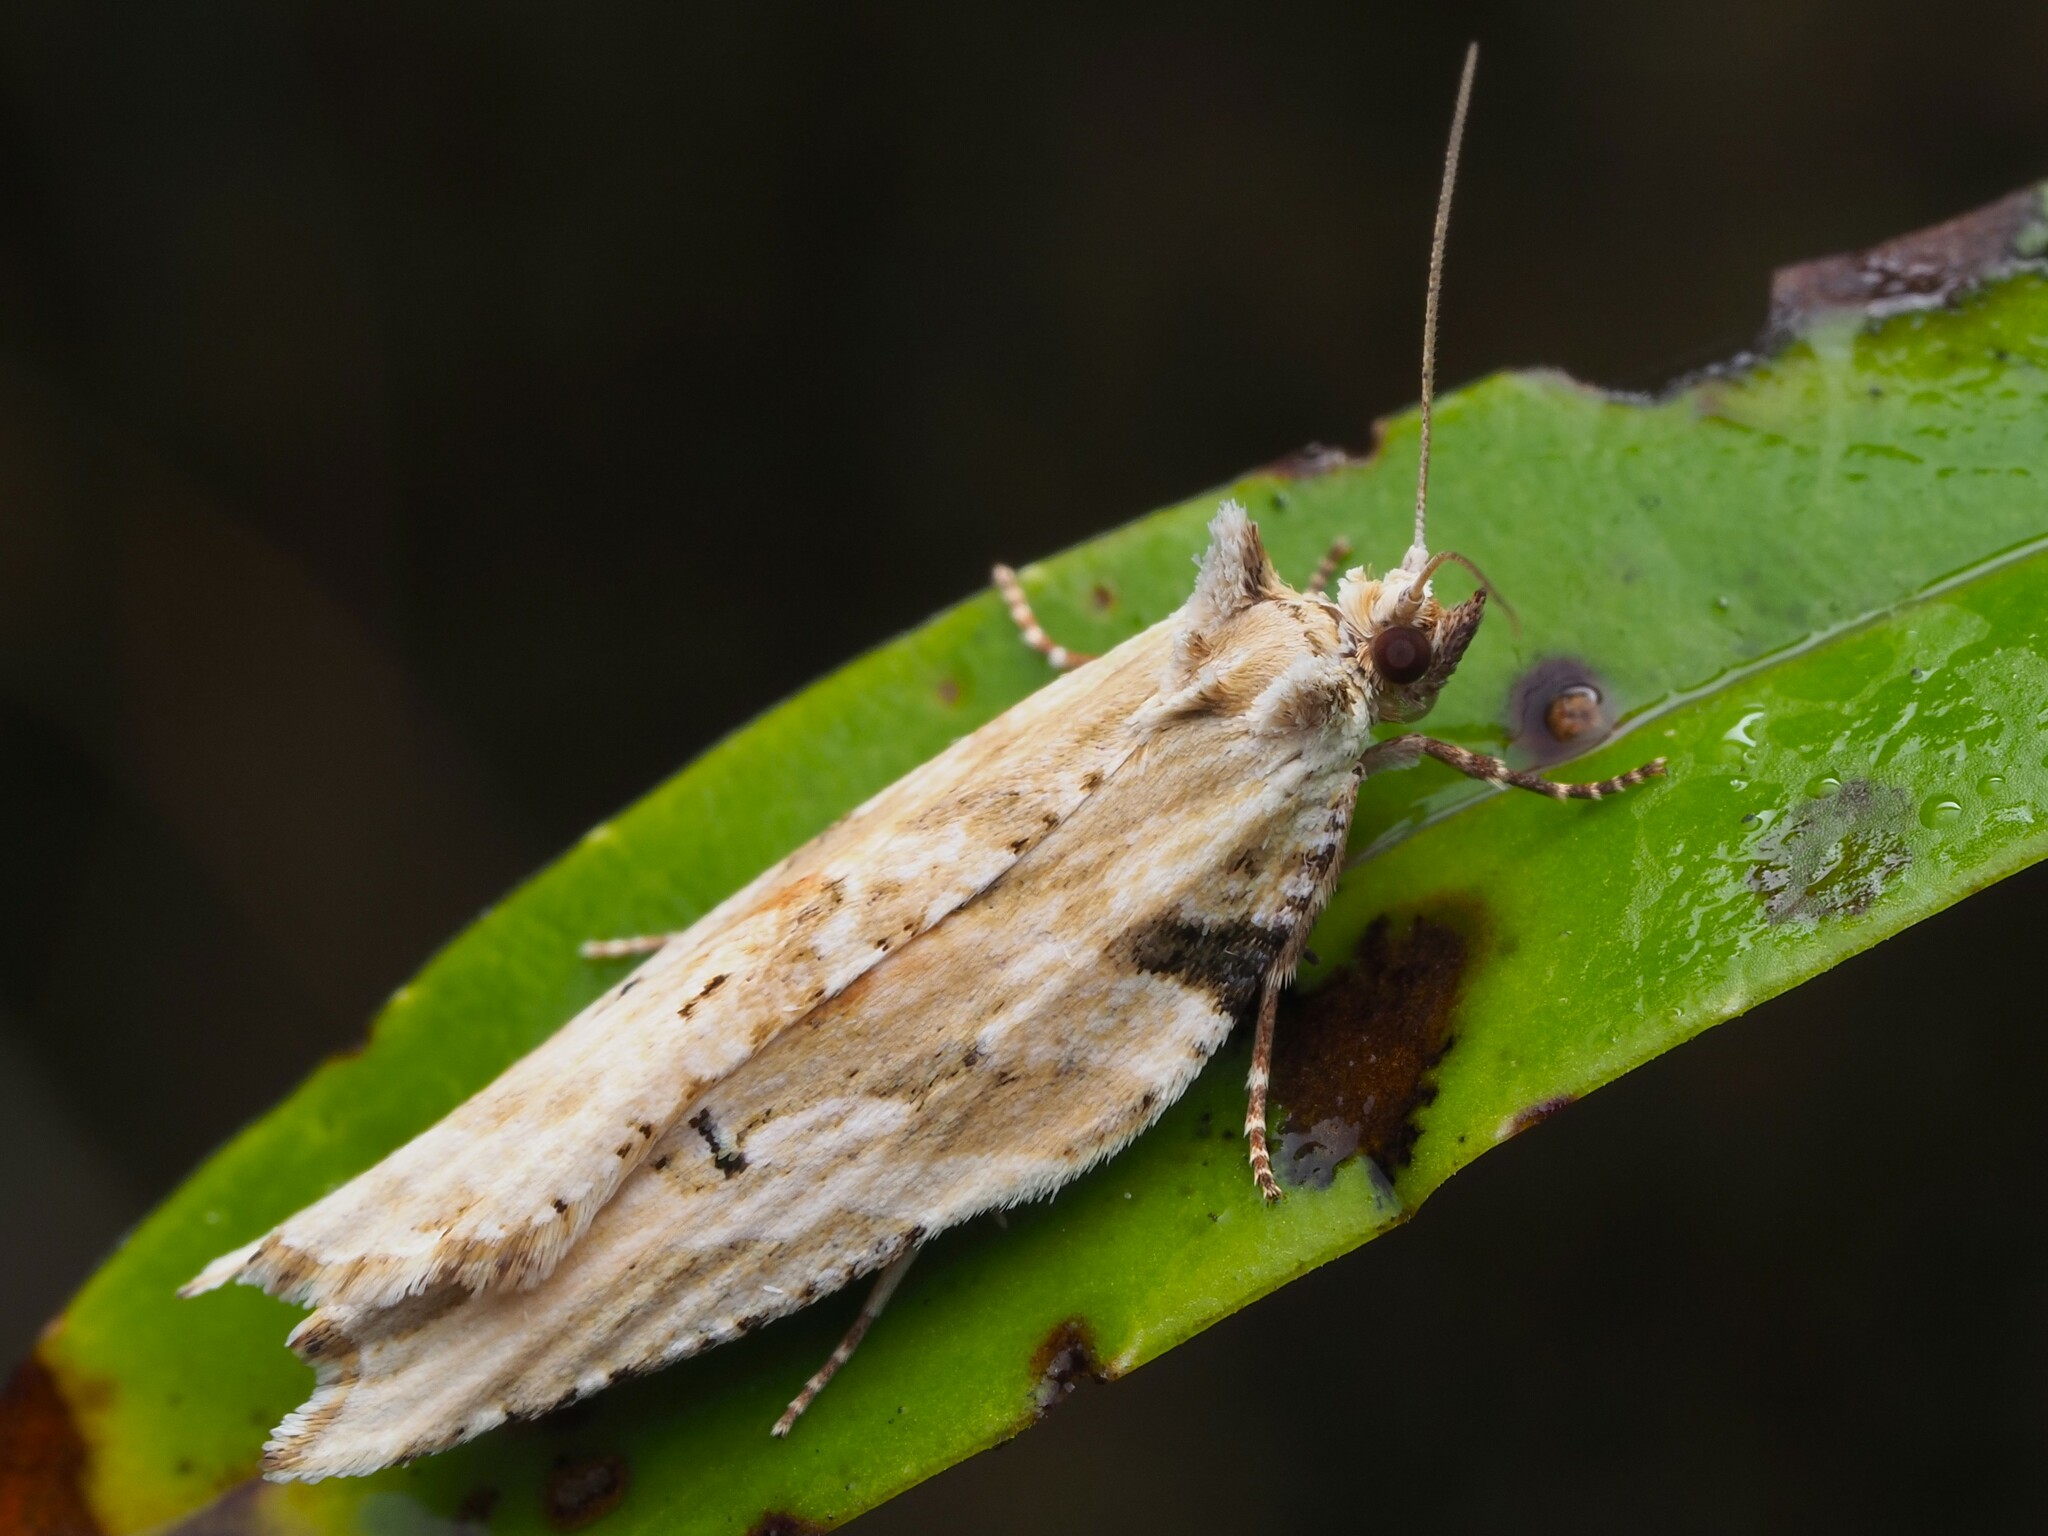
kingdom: Animalia
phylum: Arthropoda
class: Insecta
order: Lepidoptera
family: Tortricidae
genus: Epalxiphora
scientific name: Epalxiphora axenana
